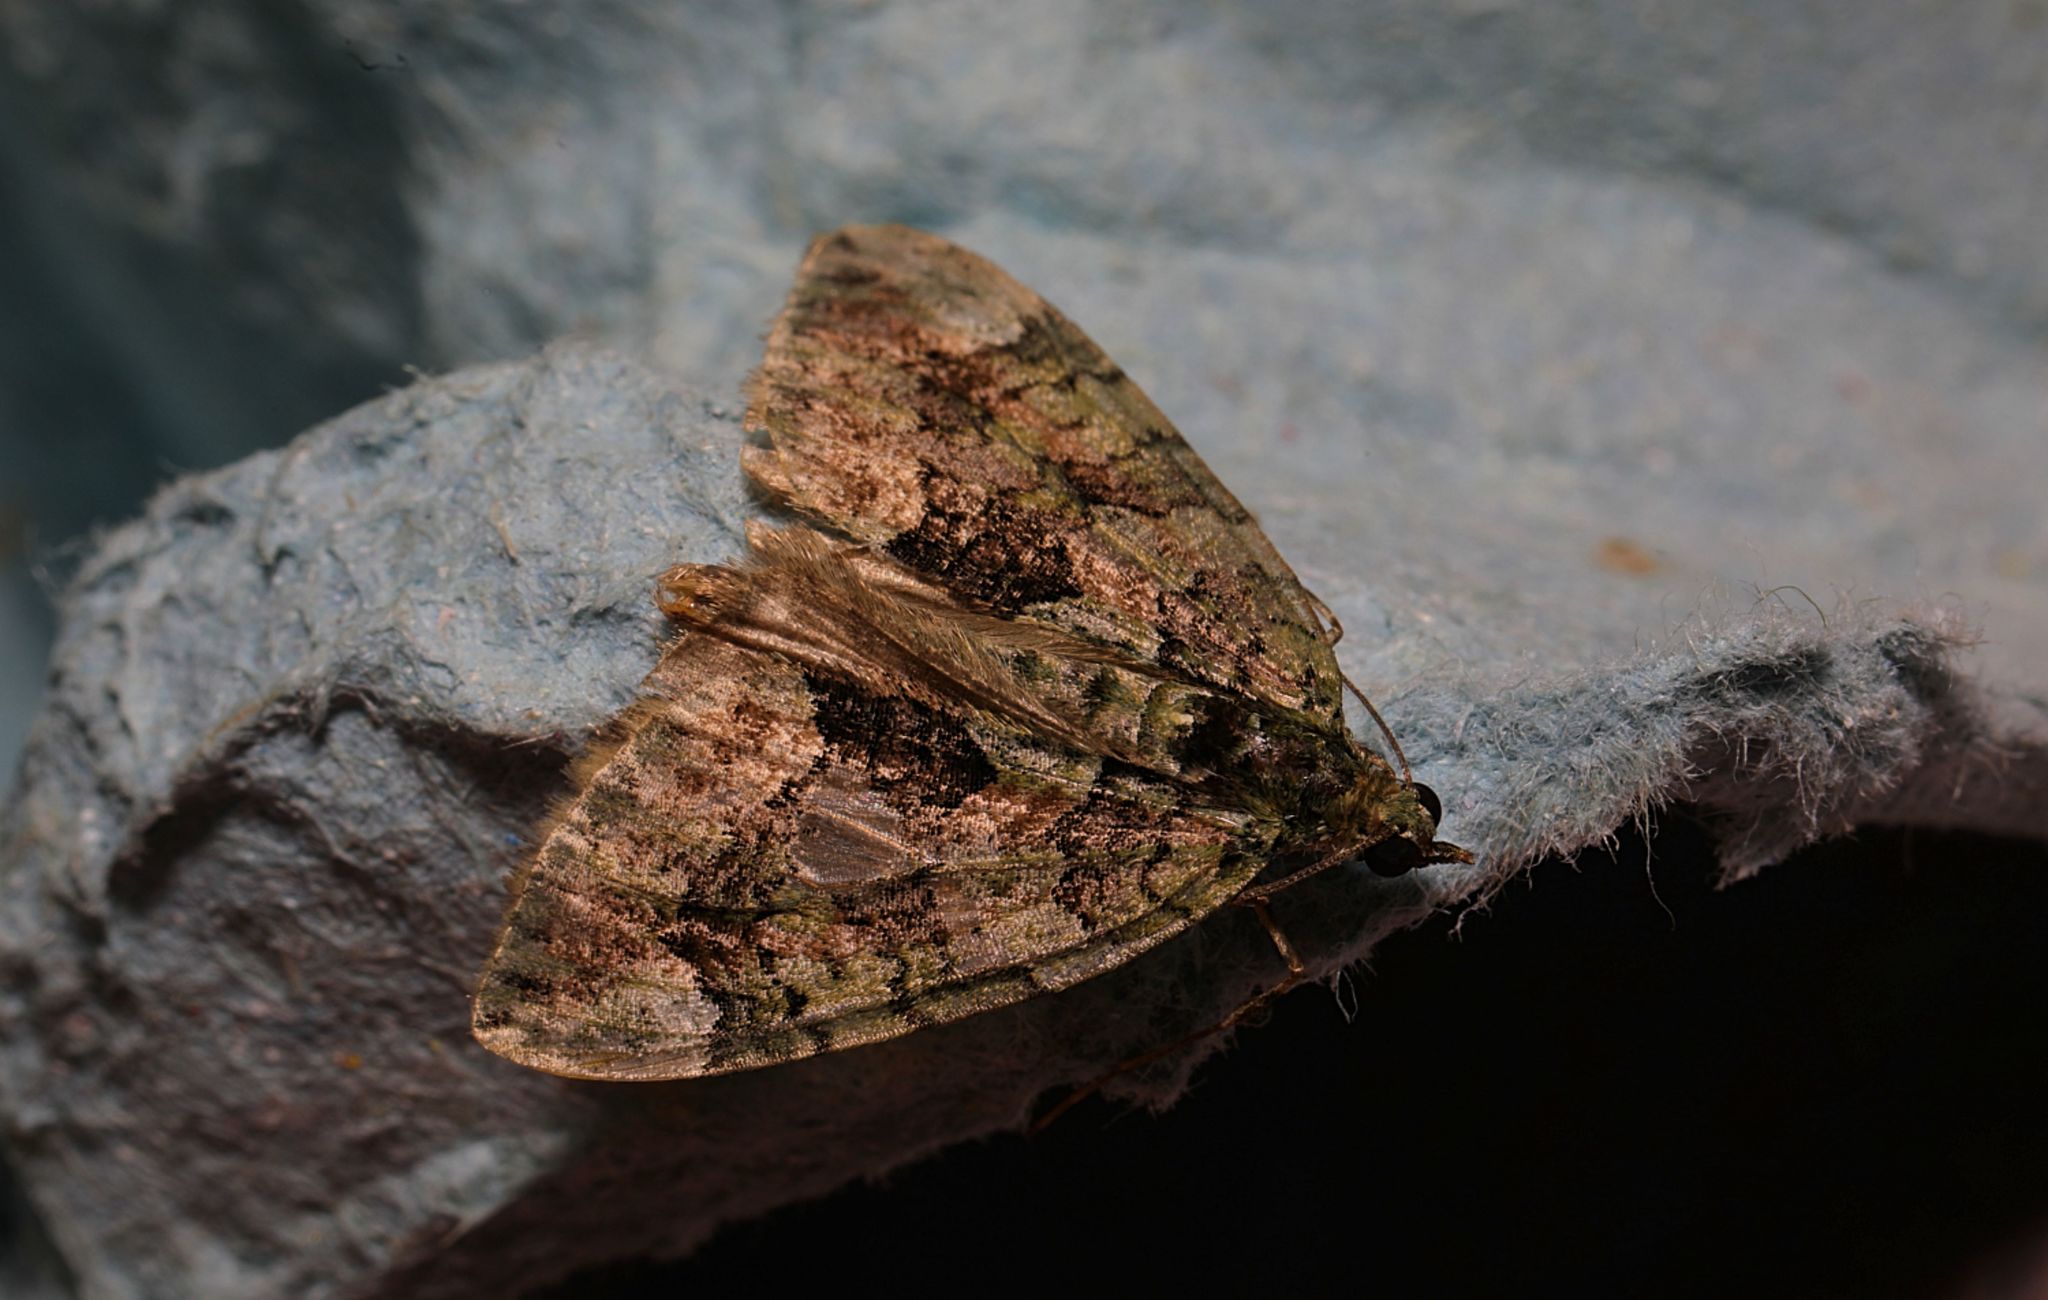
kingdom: Animalia
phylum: Arthropoda
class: Insecta
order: Lepidoptera
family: Geometridae
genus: Chloroclysta
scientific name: Chloroclysta siterata
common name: Red-green carpet
